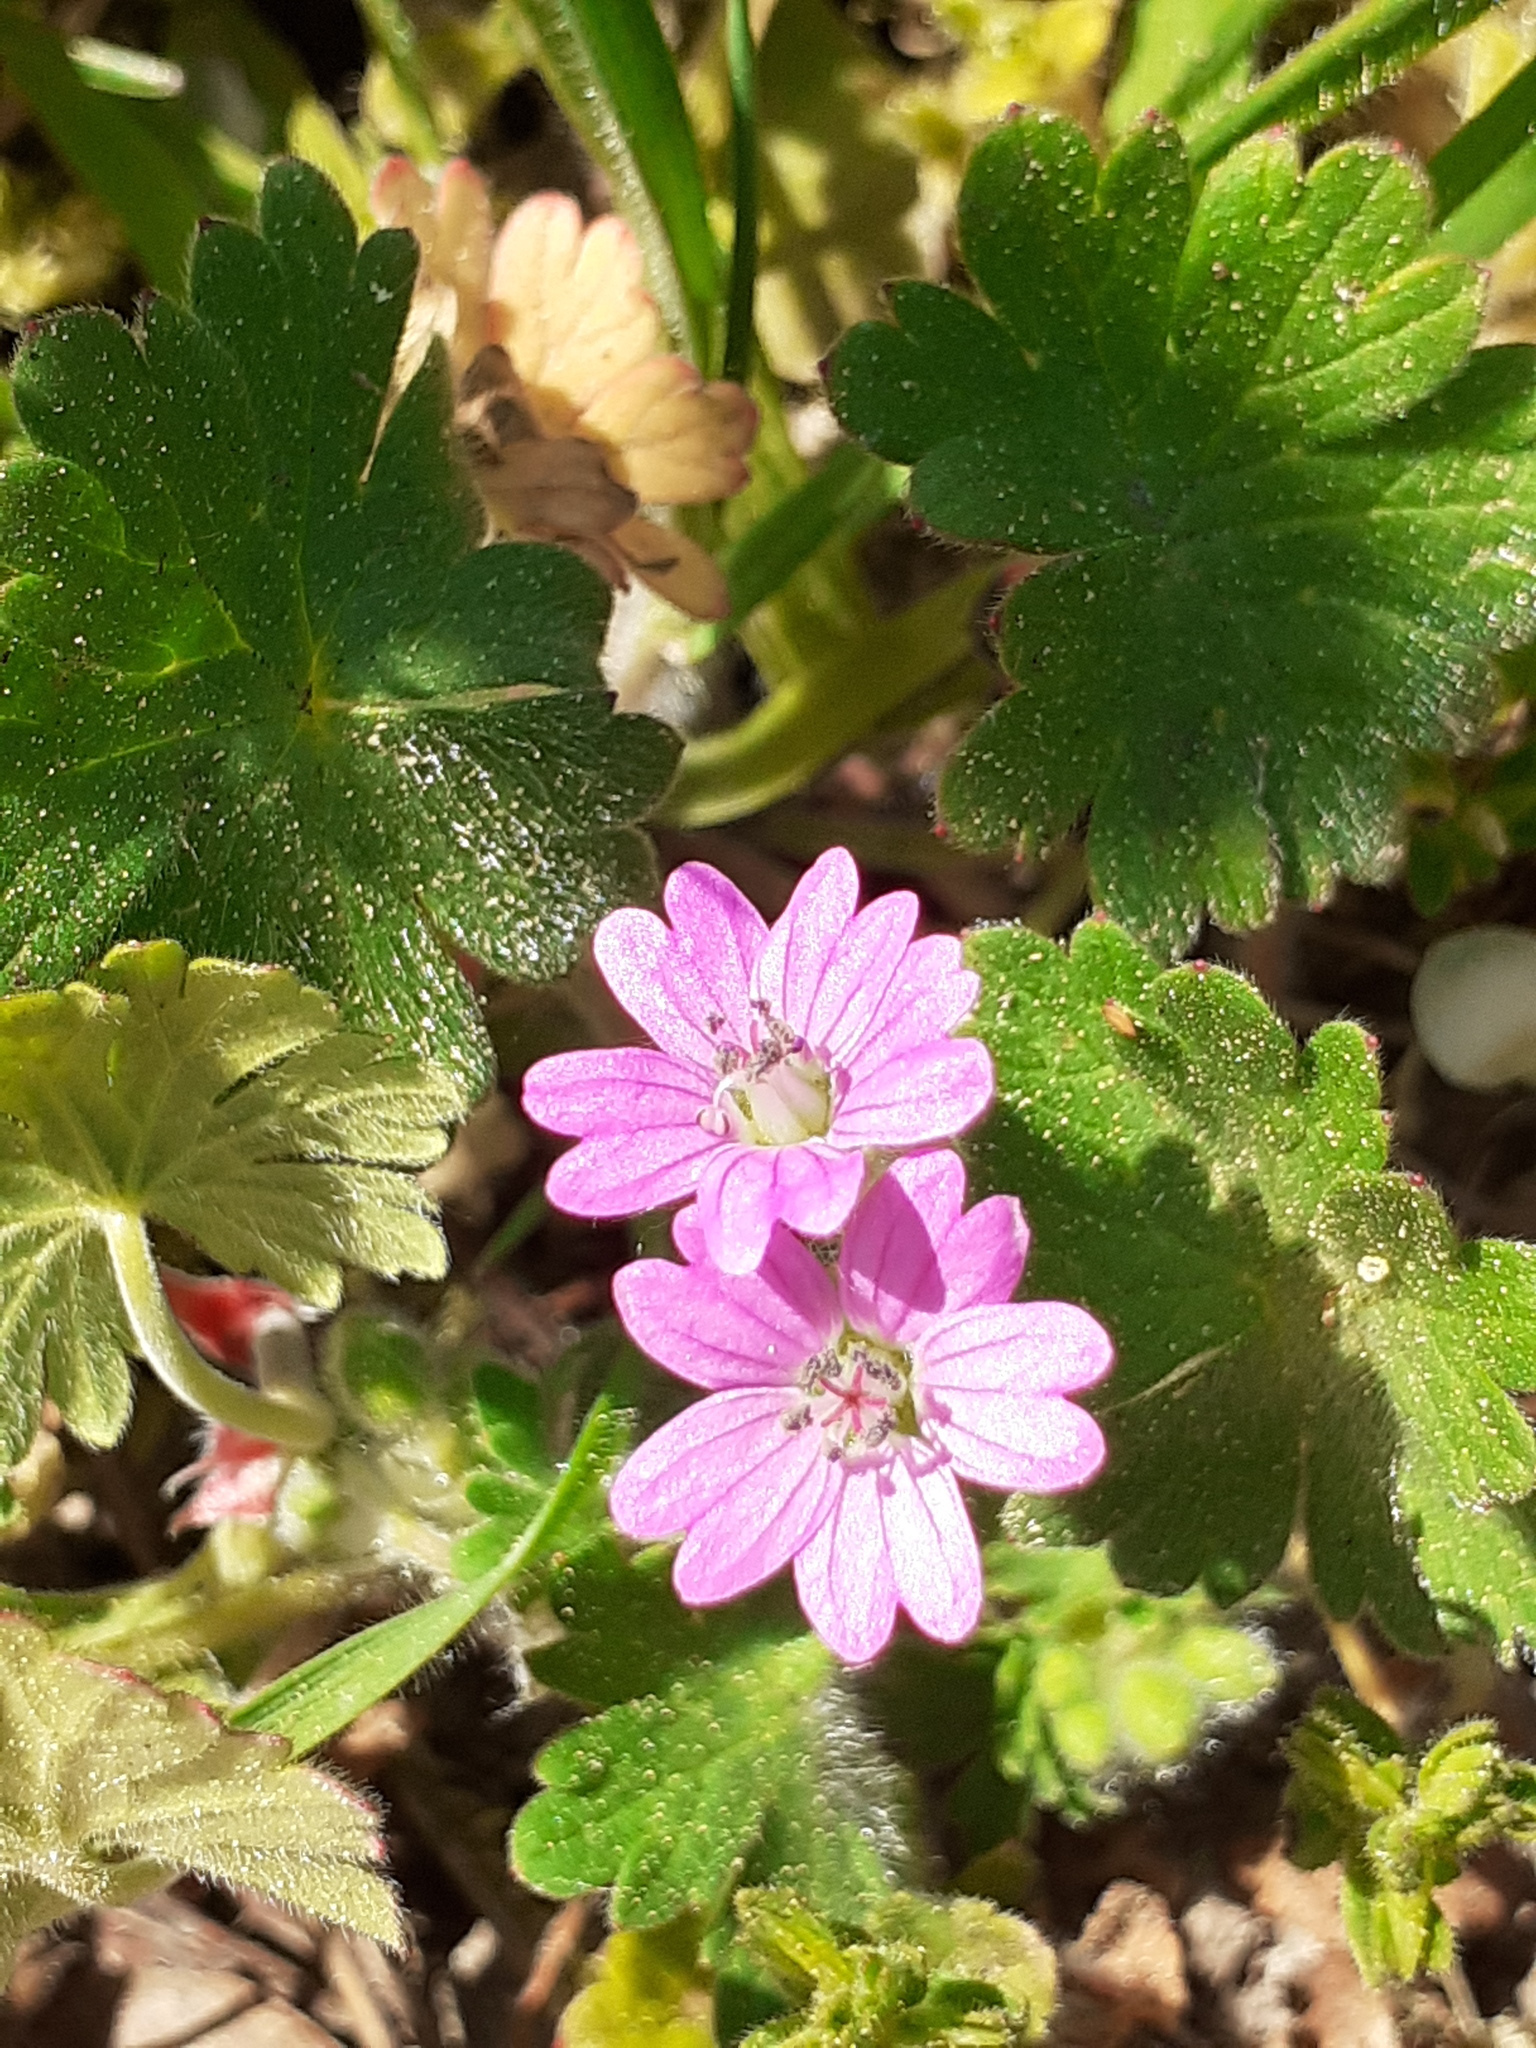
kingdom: Plantae
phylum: Tracheophyta
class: Magnoliopsida
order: Geraniales
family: Geraniaceae
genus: Geranium
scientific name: Geranium molle
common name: Dove's-foot crane's-bill
